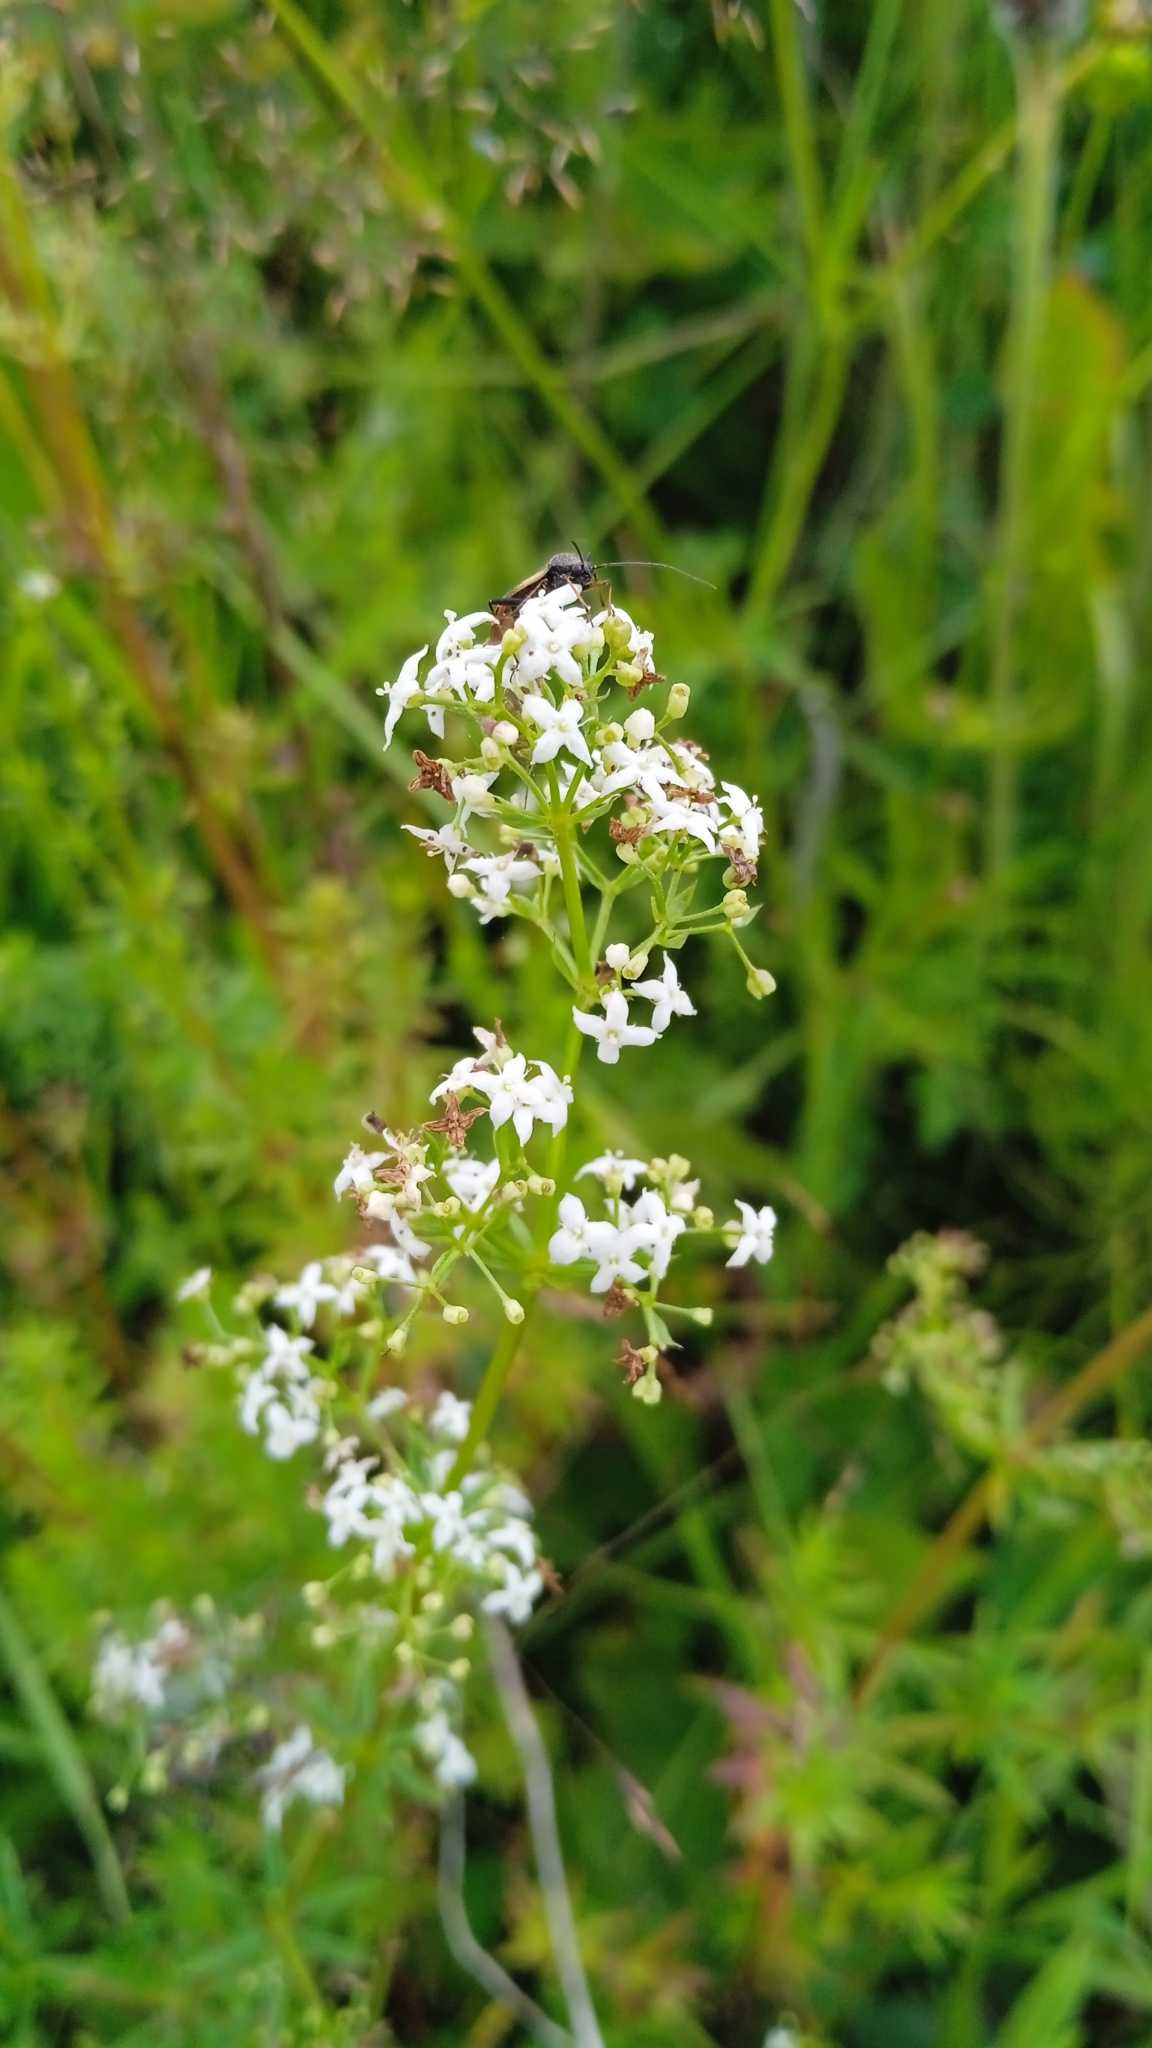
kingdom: Plantae
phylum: Tracheophyta
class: Magnoliopsida
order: Gentianales
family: Rubiaceae
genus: Galium
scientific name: Galium mollugo
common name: Hedge bedstraw
